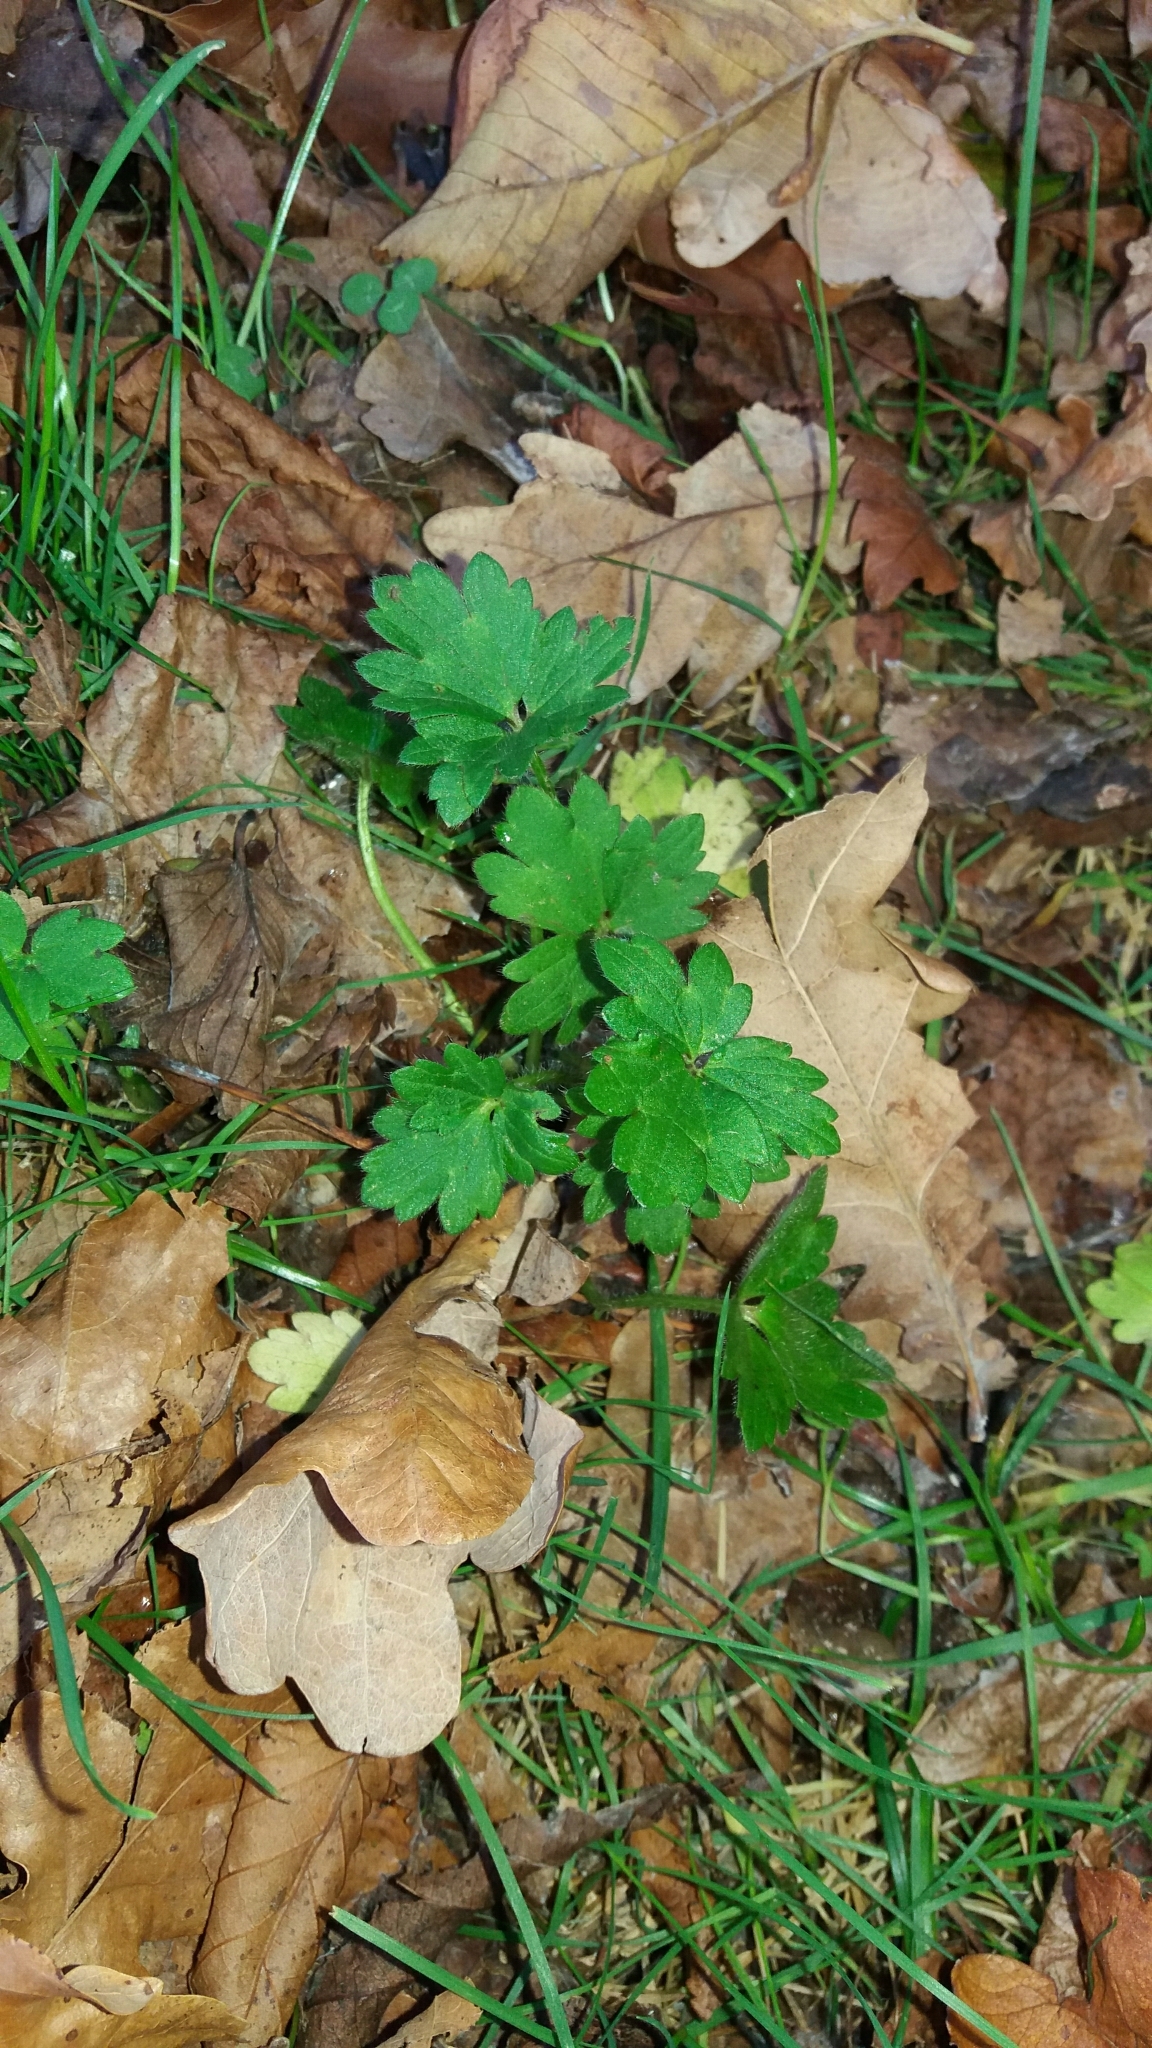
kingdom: Plantae
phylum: Tracheophyta
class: Magnoliopsida
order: Ranunculales
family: Ranunculaceae
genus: Ranunculus
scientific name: Ranunculus repens
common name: Creeping buttercup
